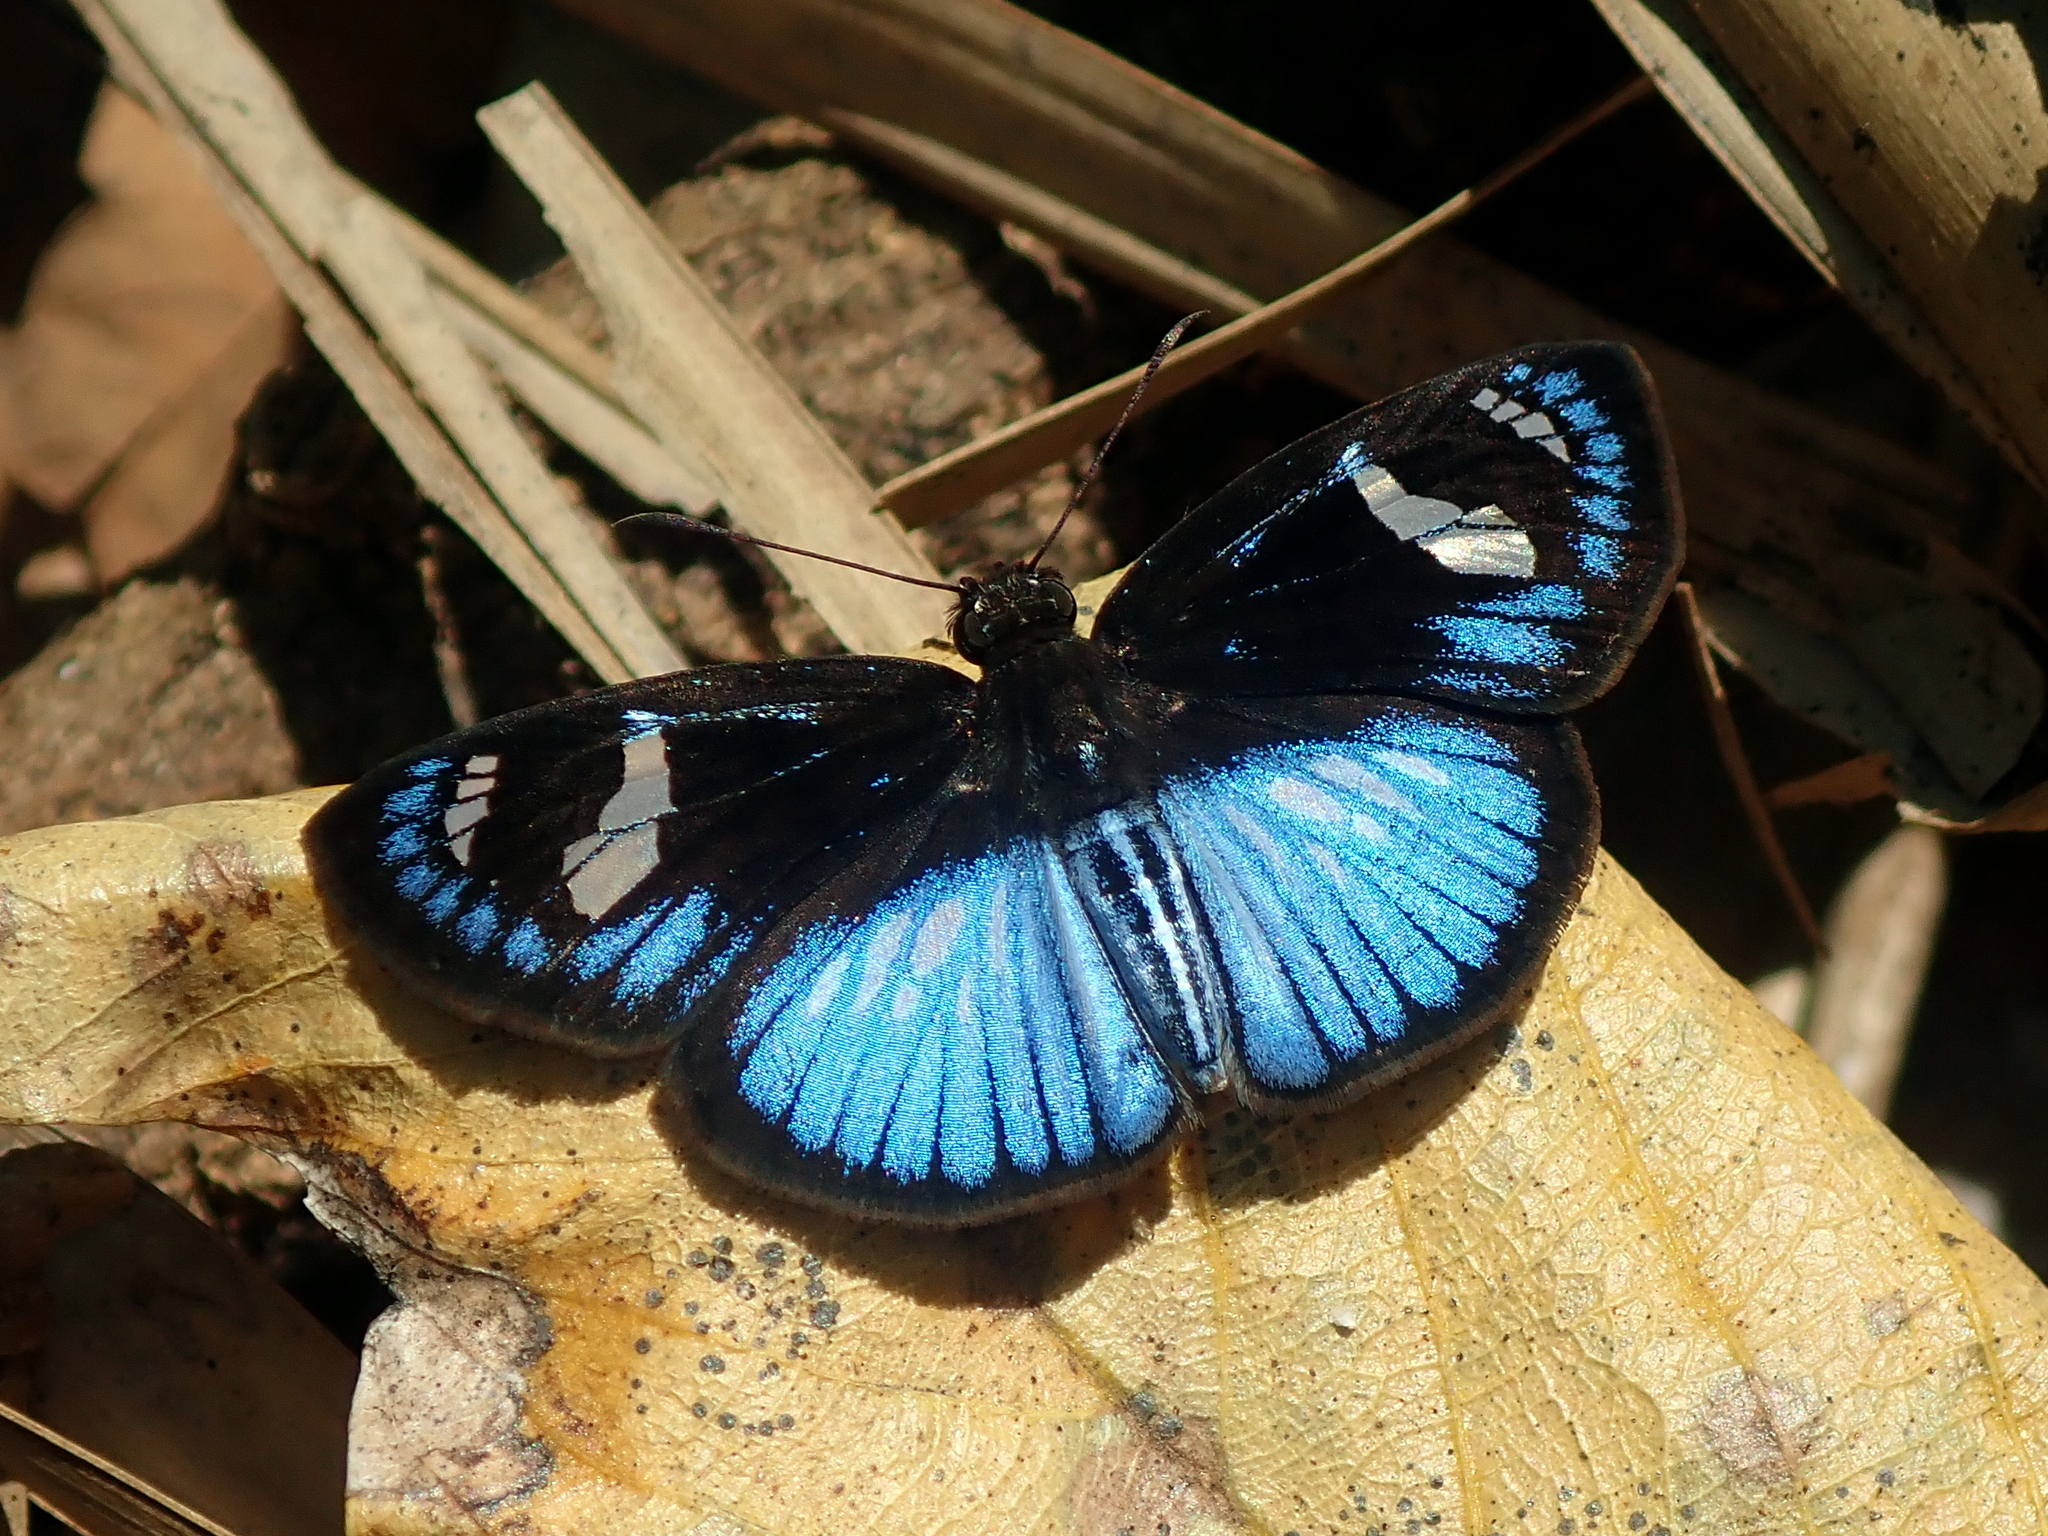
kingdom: Animalia
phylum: Arthropoda
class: Insecta
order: Lepidoptera
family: Hesperiidae
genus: Pythonides
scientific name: Pythonides jovianus
